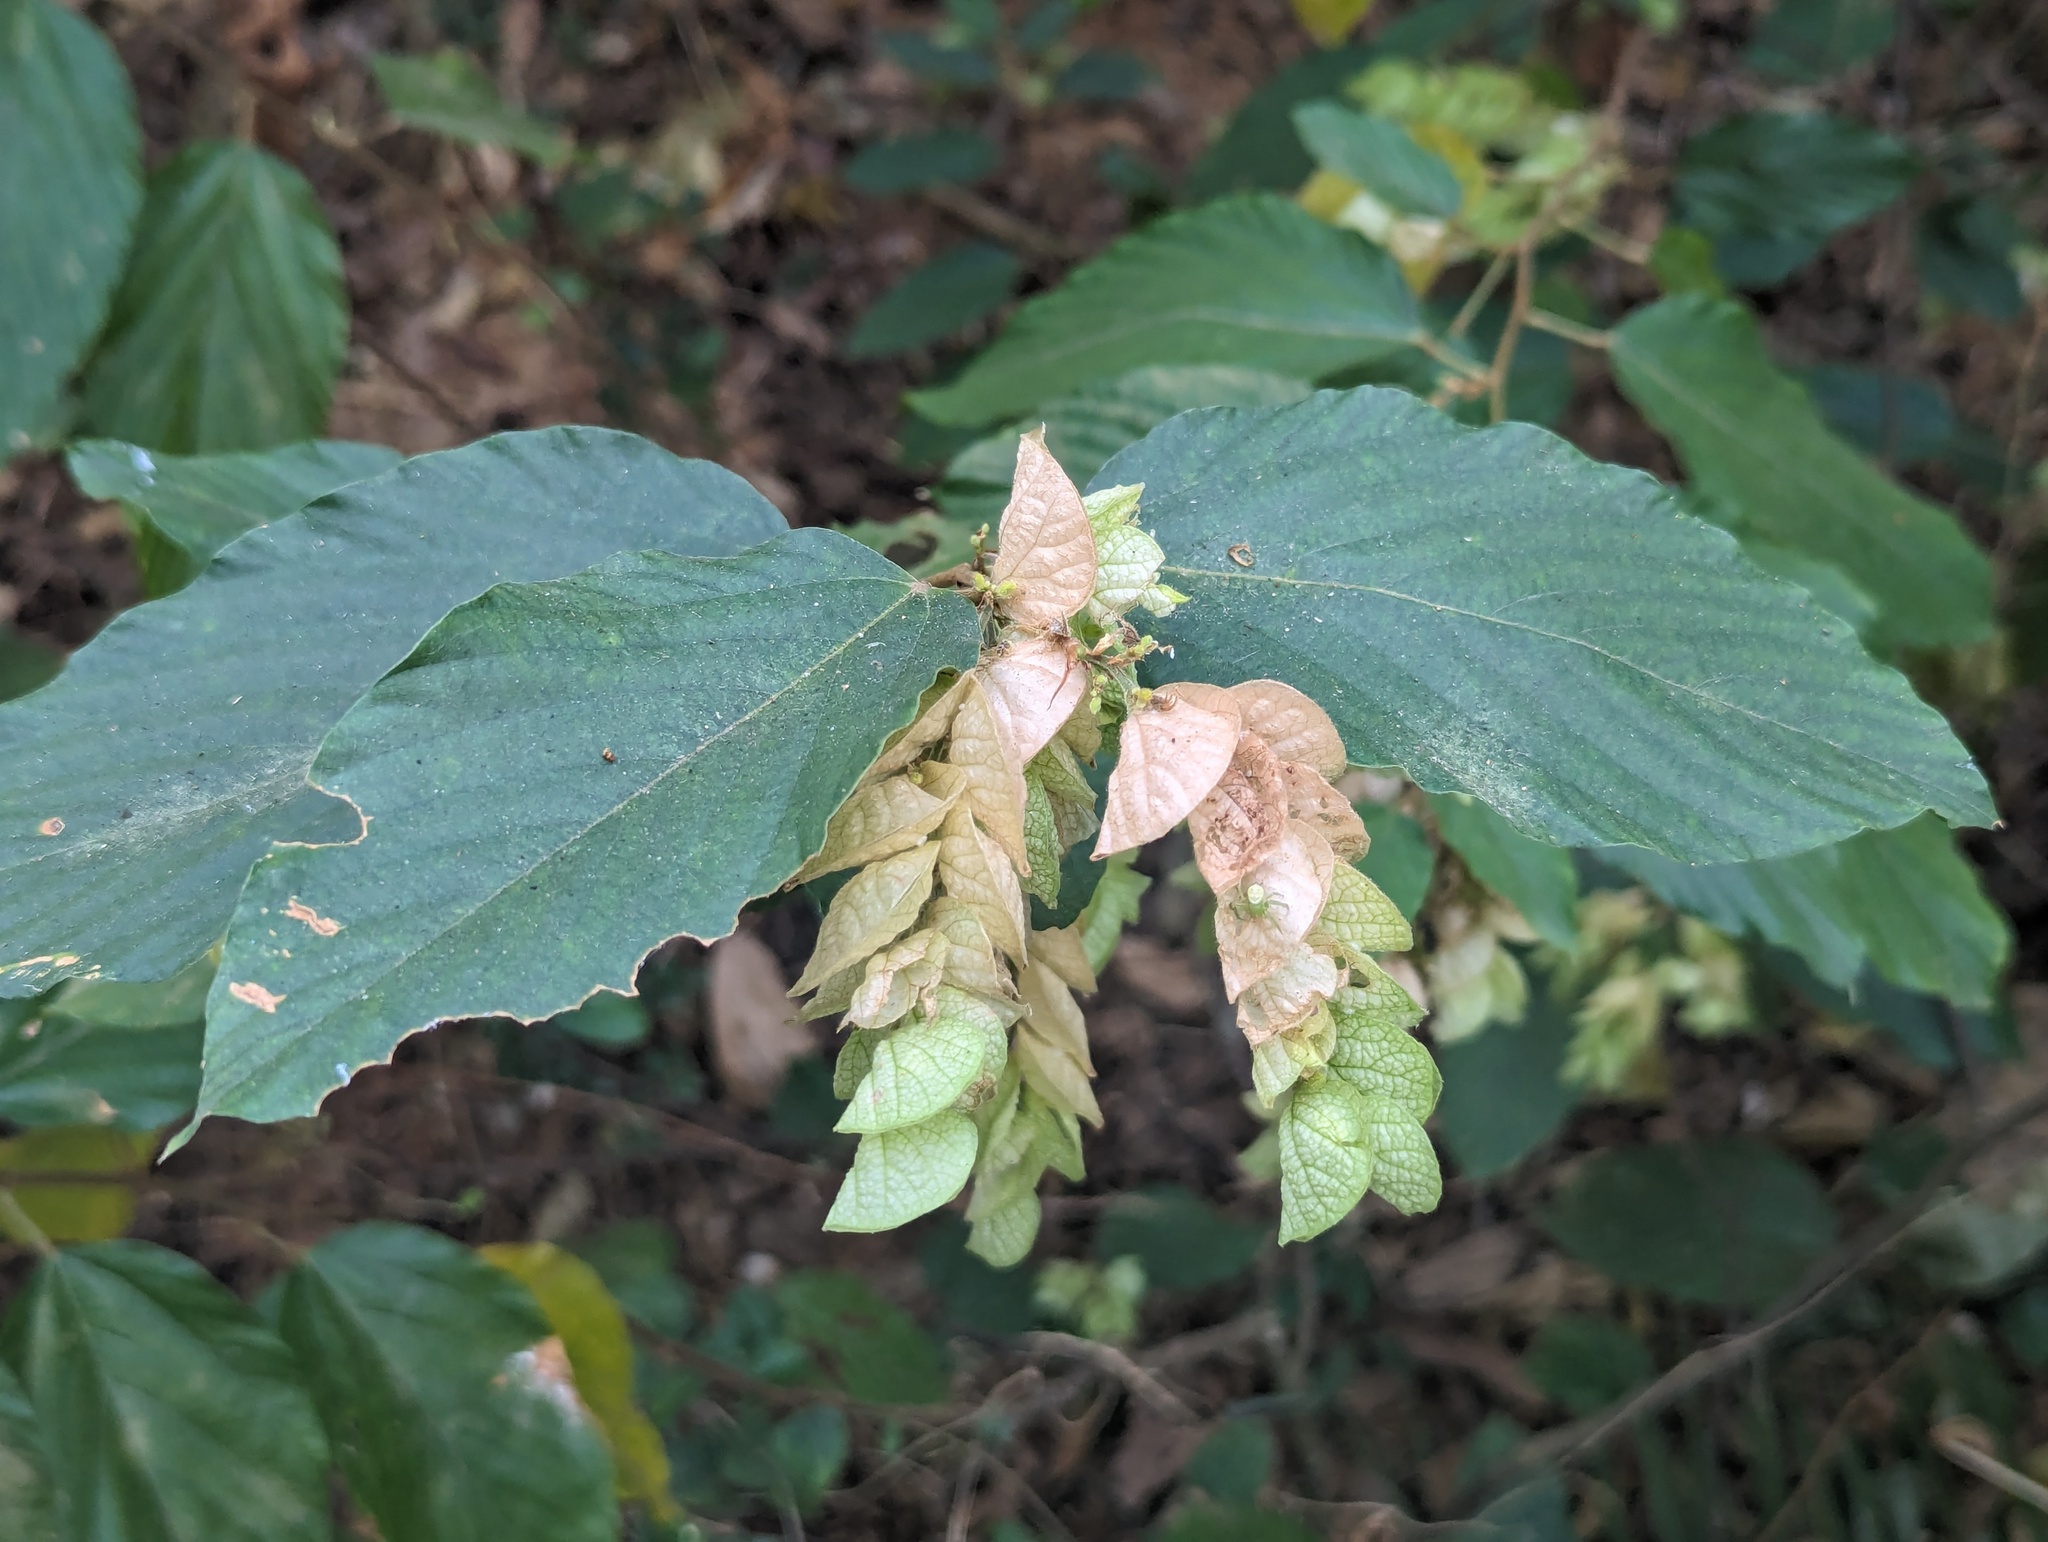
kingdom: Plantae
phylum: Tracheophyta
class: Magnoliopsida
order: Fabales
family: Fabaceae
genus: Flemingia
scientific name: Flemingia strobilifera
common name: Wild hops
